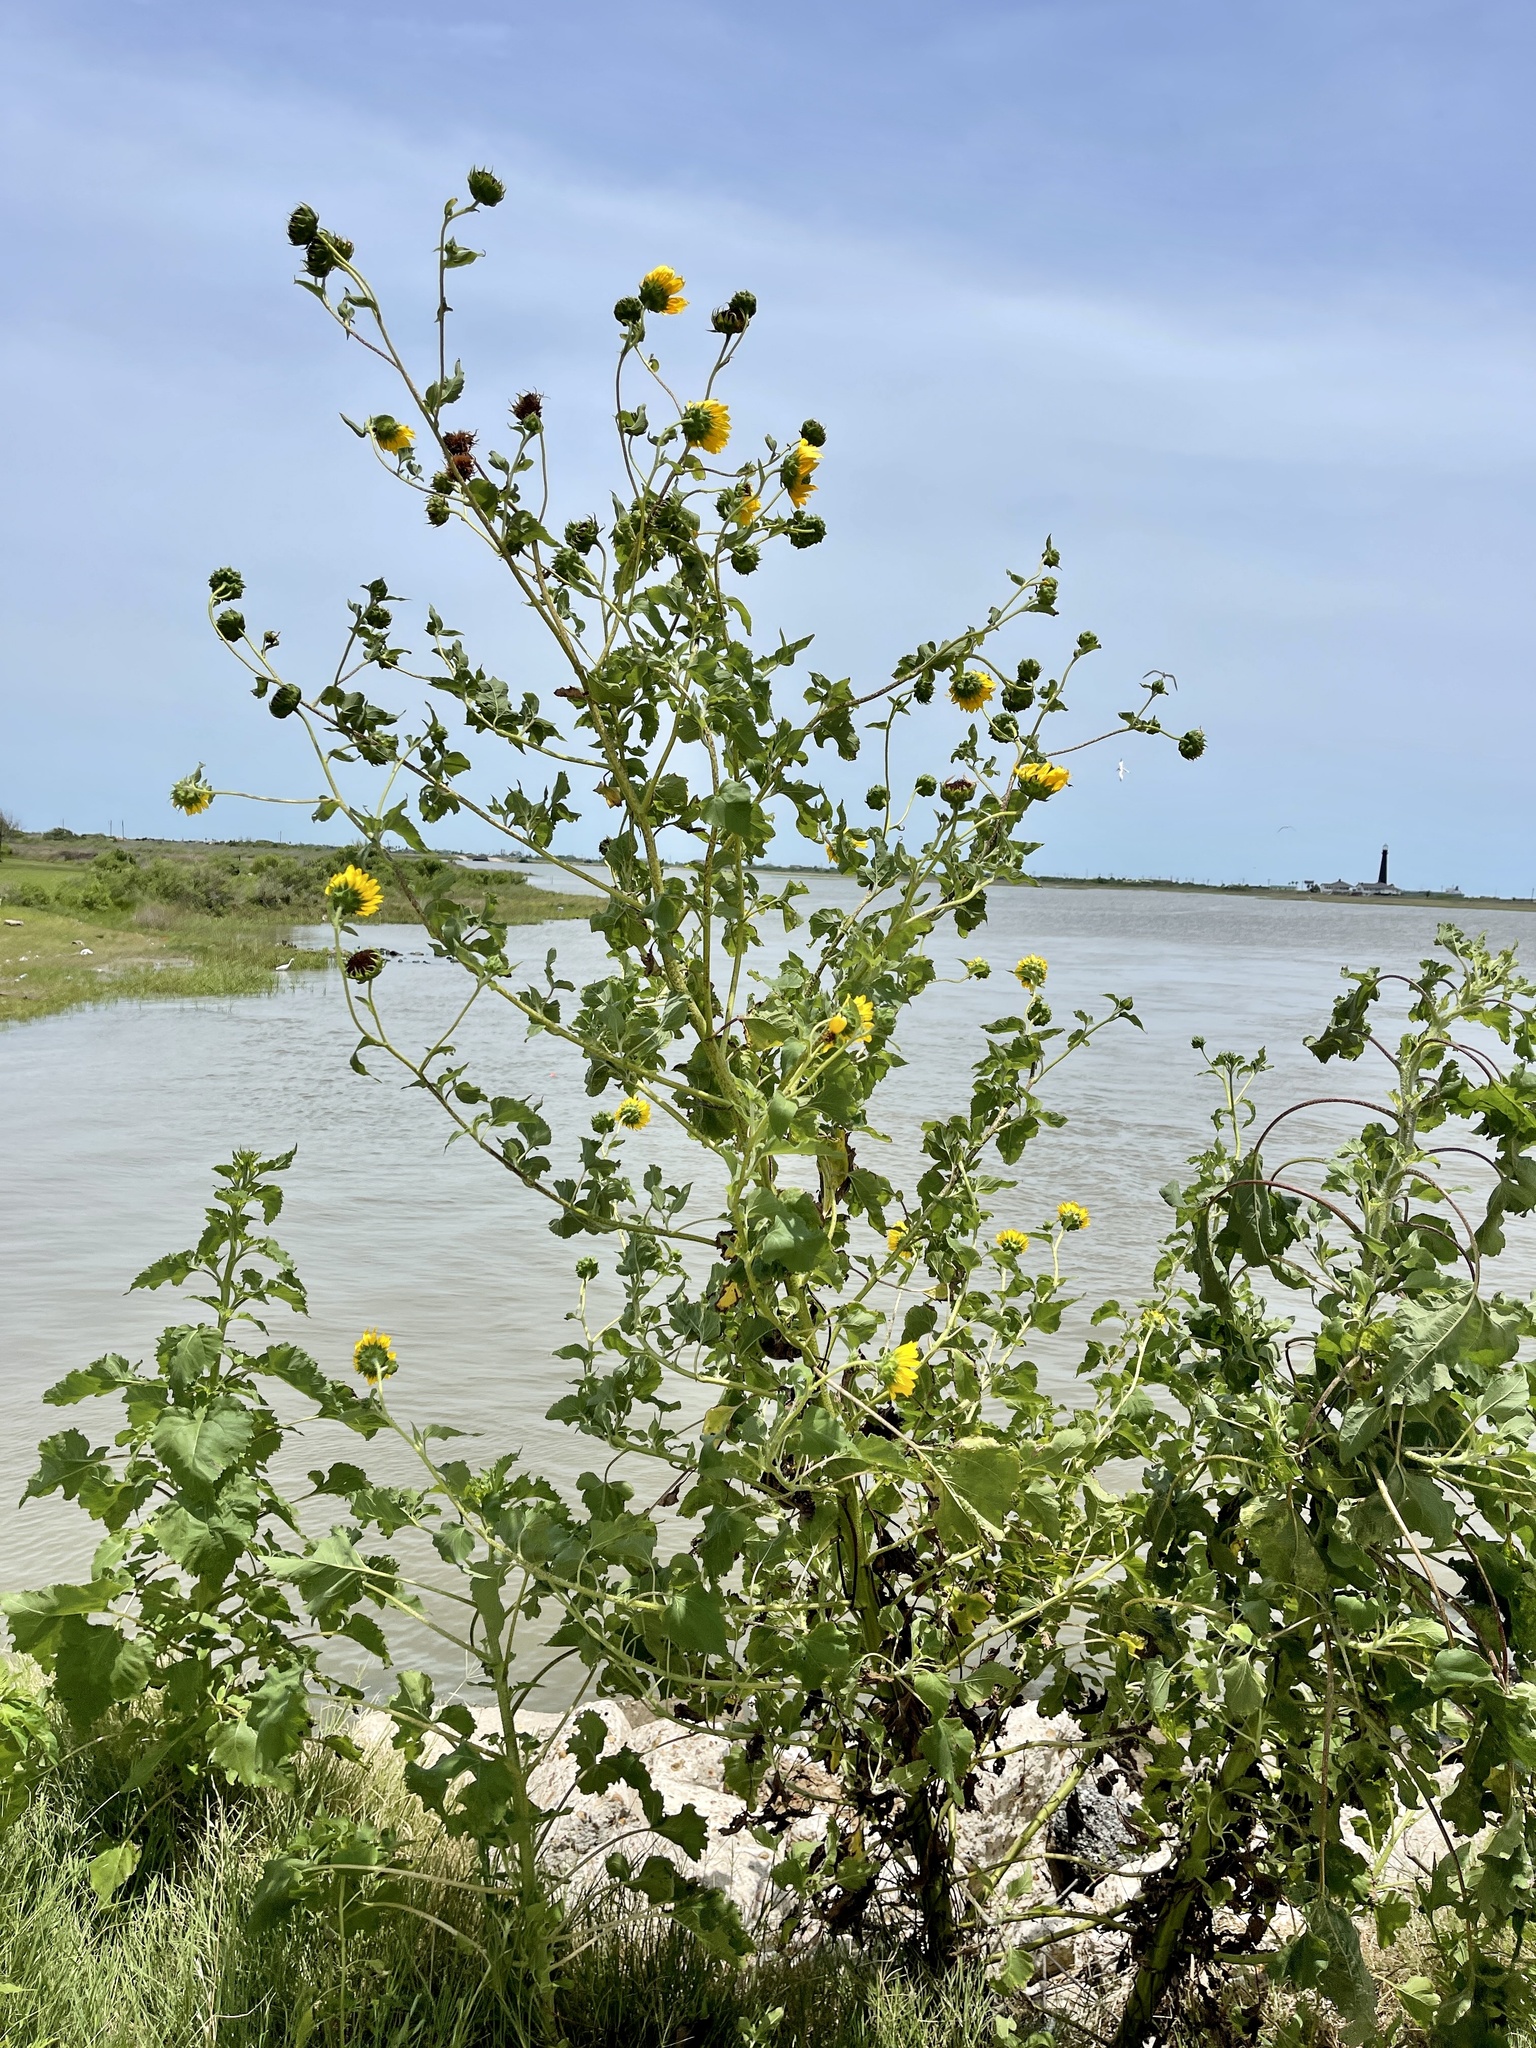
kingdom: Plantae
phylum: Tracheophyta
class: Magnoliopsida
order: Asterales
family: Asteraceae
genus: Helianthus
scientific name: Helianthus annuus
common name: Sunflower
